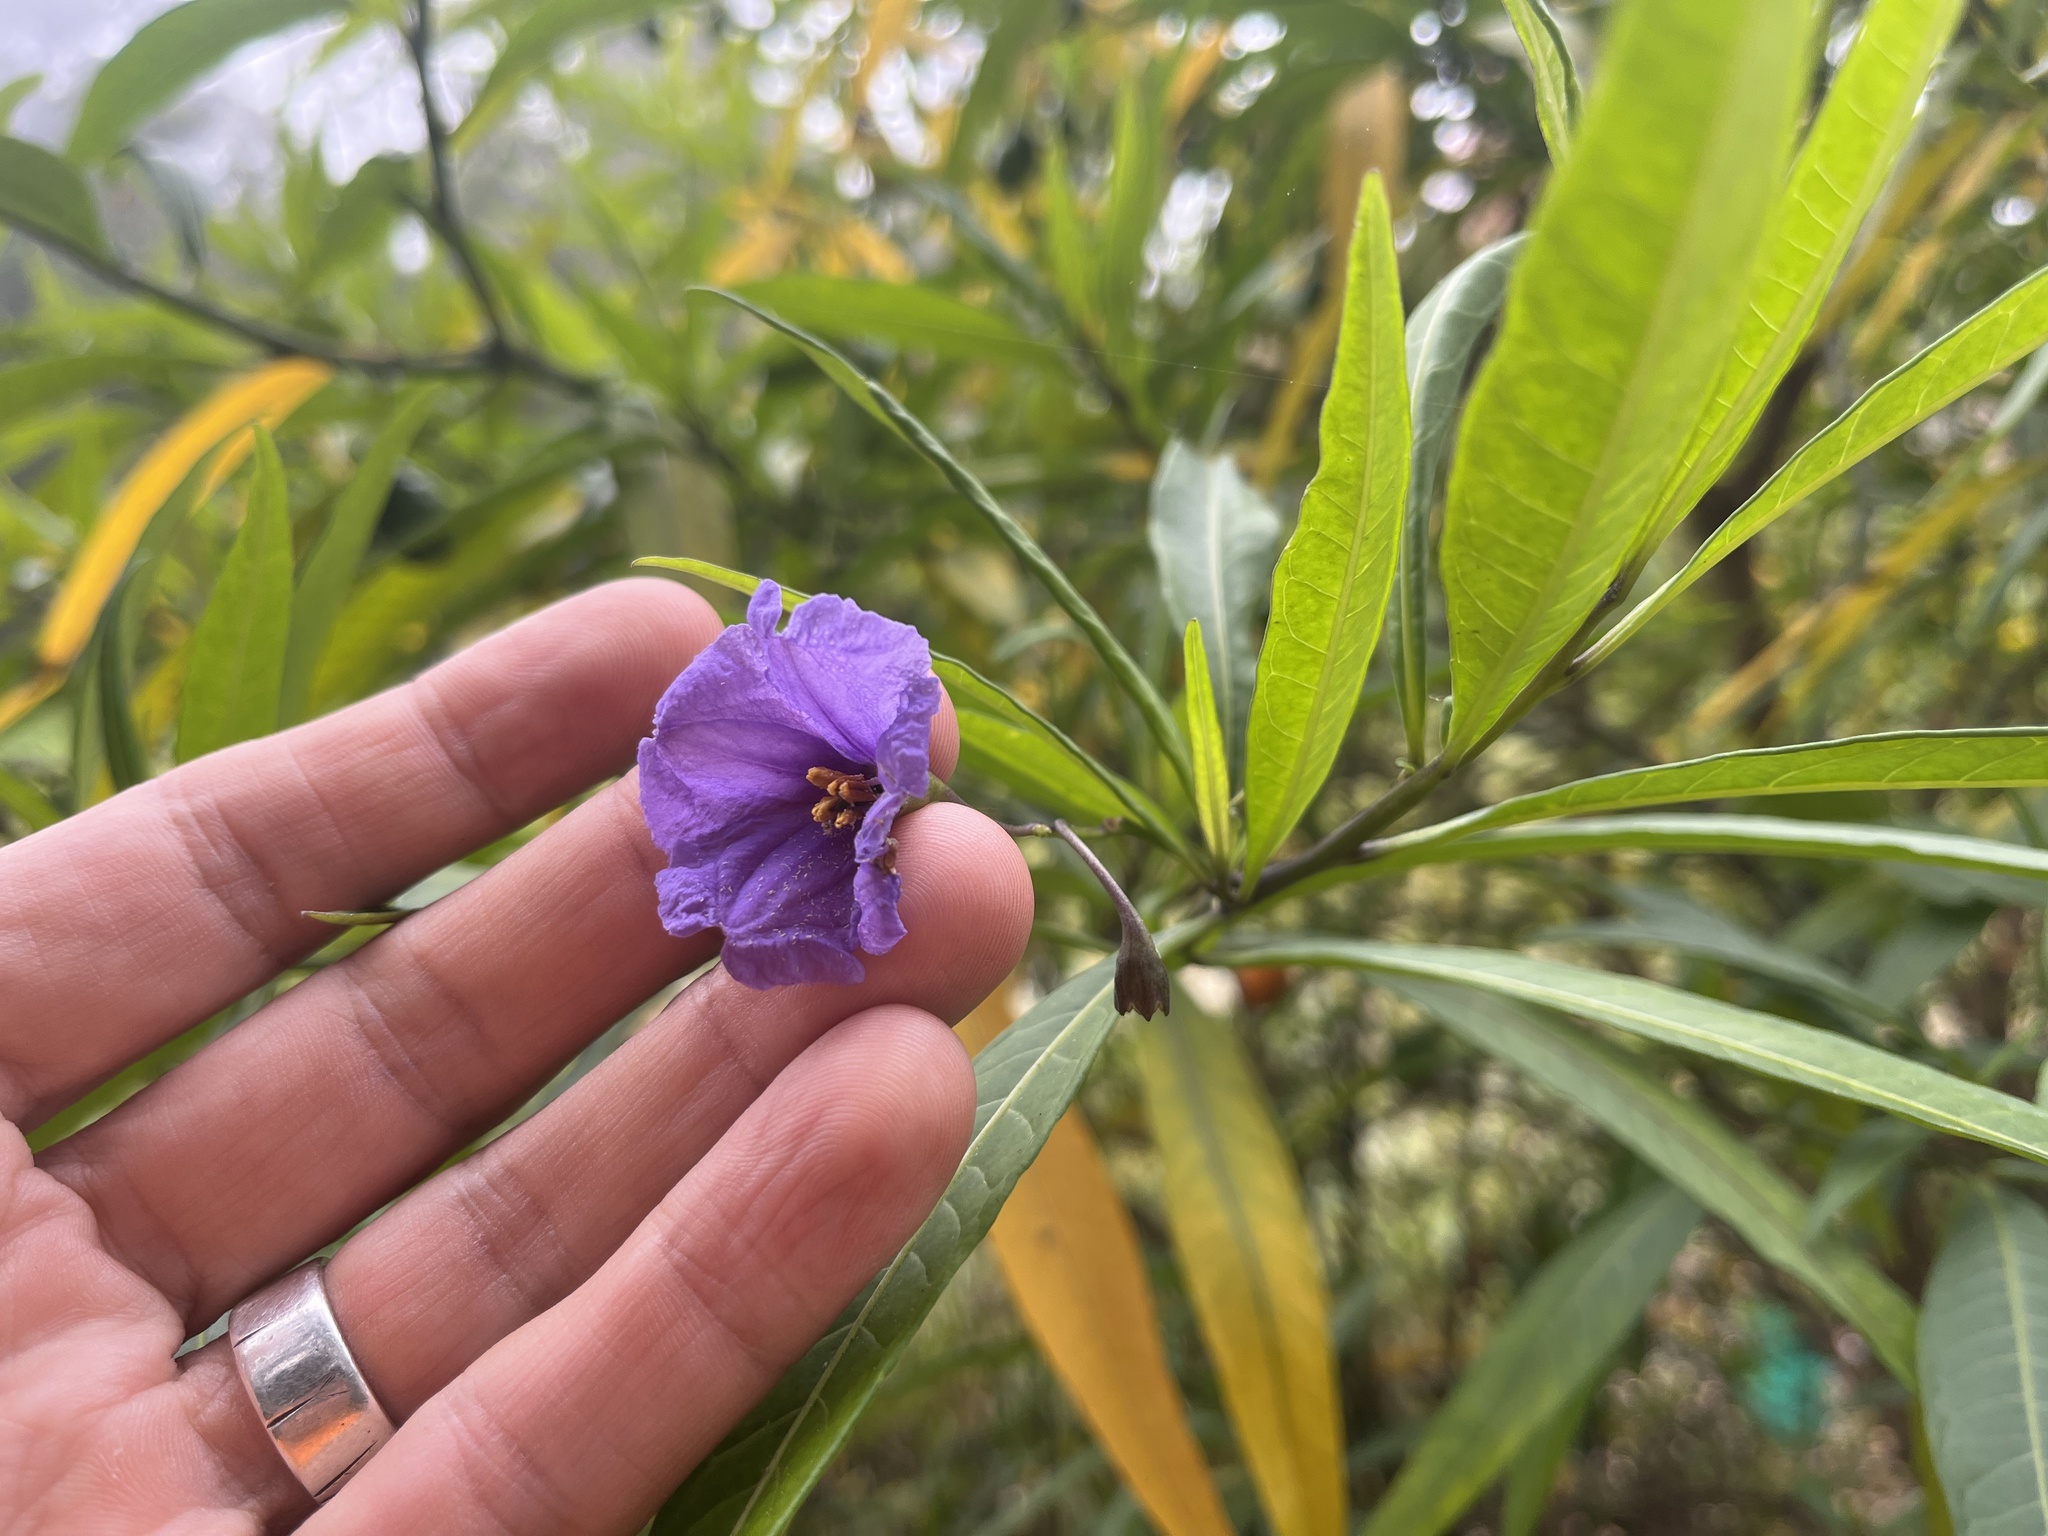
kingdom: Plantae
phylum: Tracheophyta
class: Magnoliopsida
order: Solanales
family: Solanaceae
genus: Solanum
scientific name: Solanum laciniatum
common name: Kangaroo-apple
